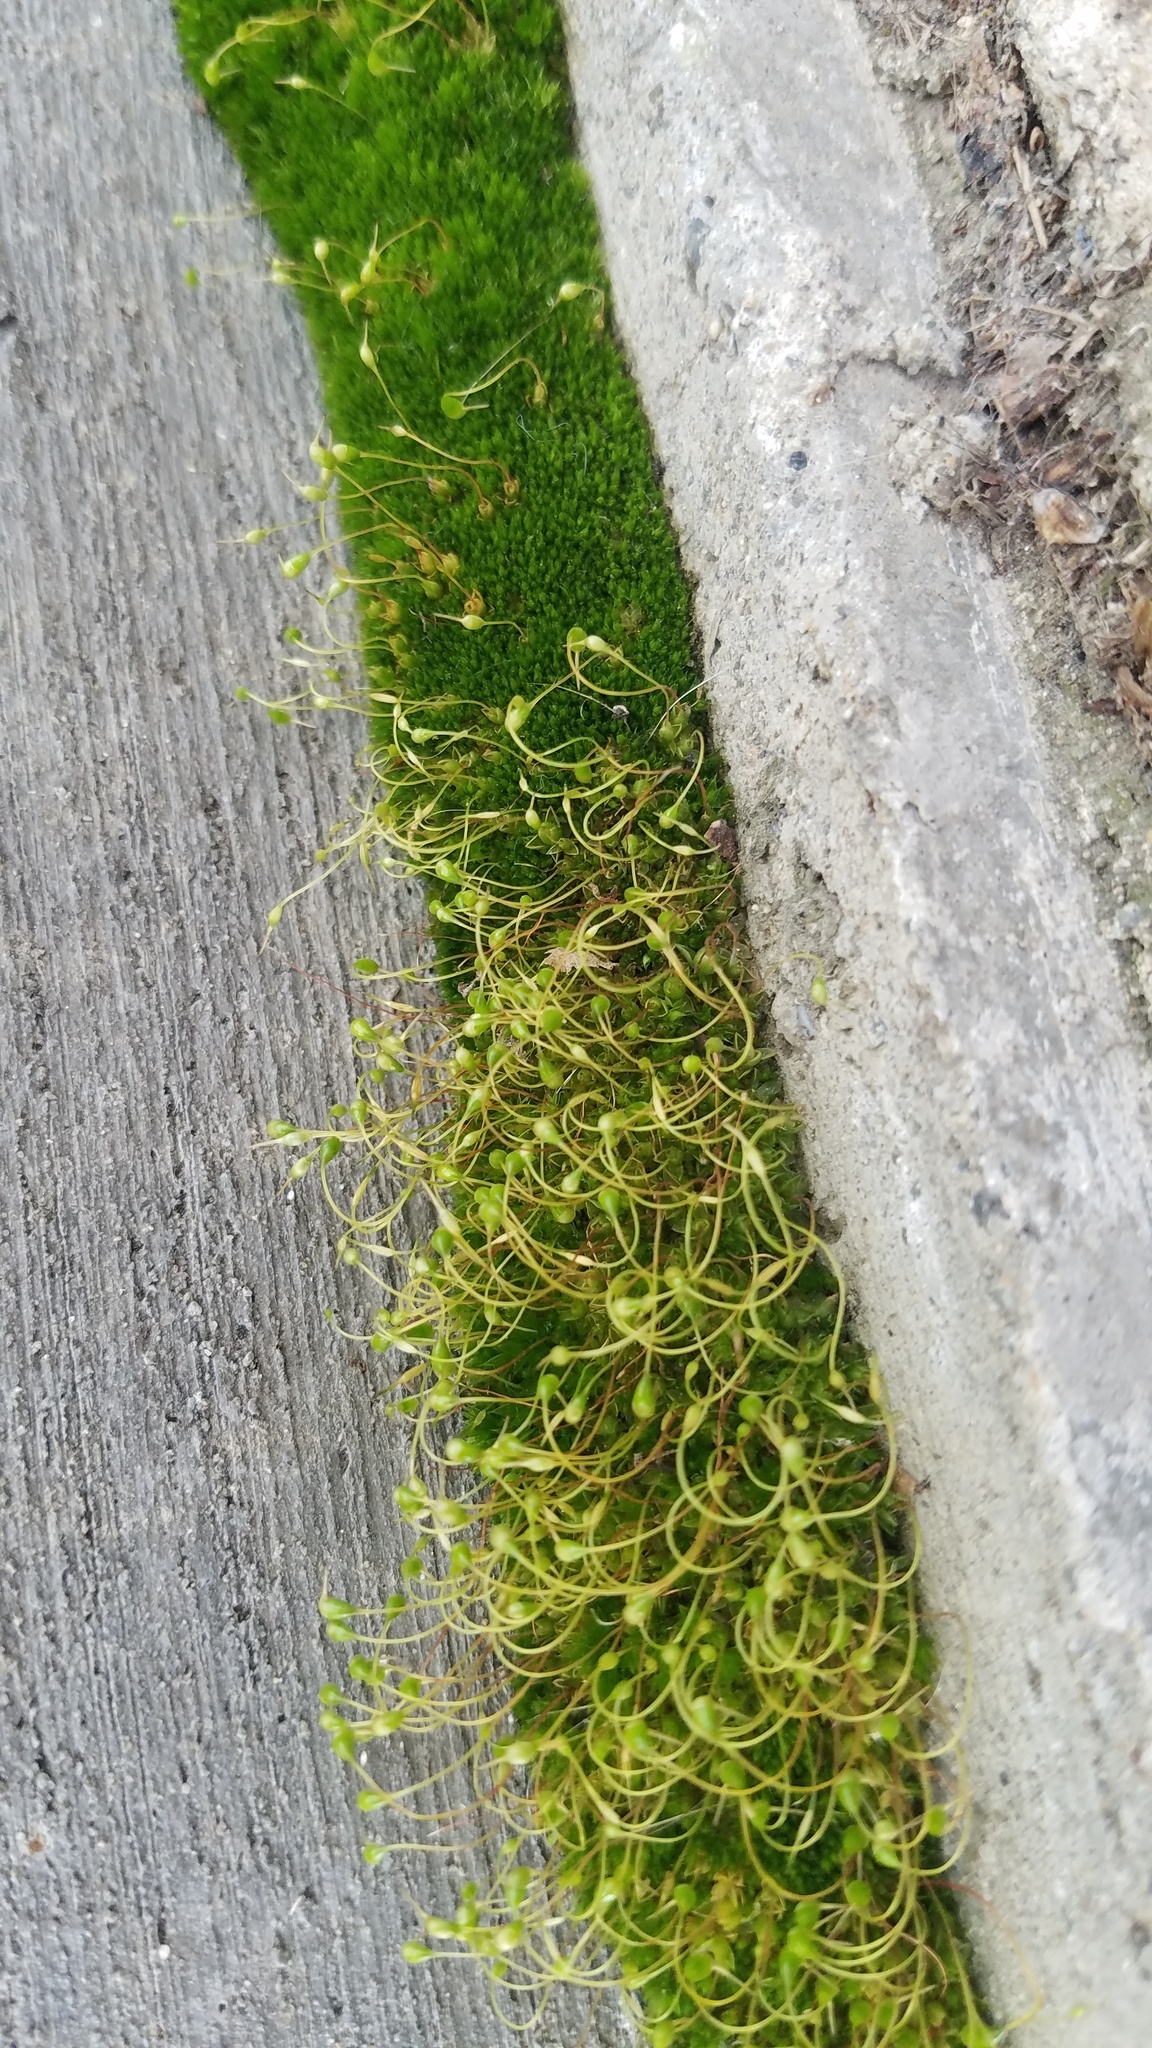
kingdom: Plantae
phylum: Bryophyta
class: Bryopsida
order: Funariales
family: Funariaceae
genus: Funaria
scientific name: Funaria hygrometrica
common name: Common cord moss
